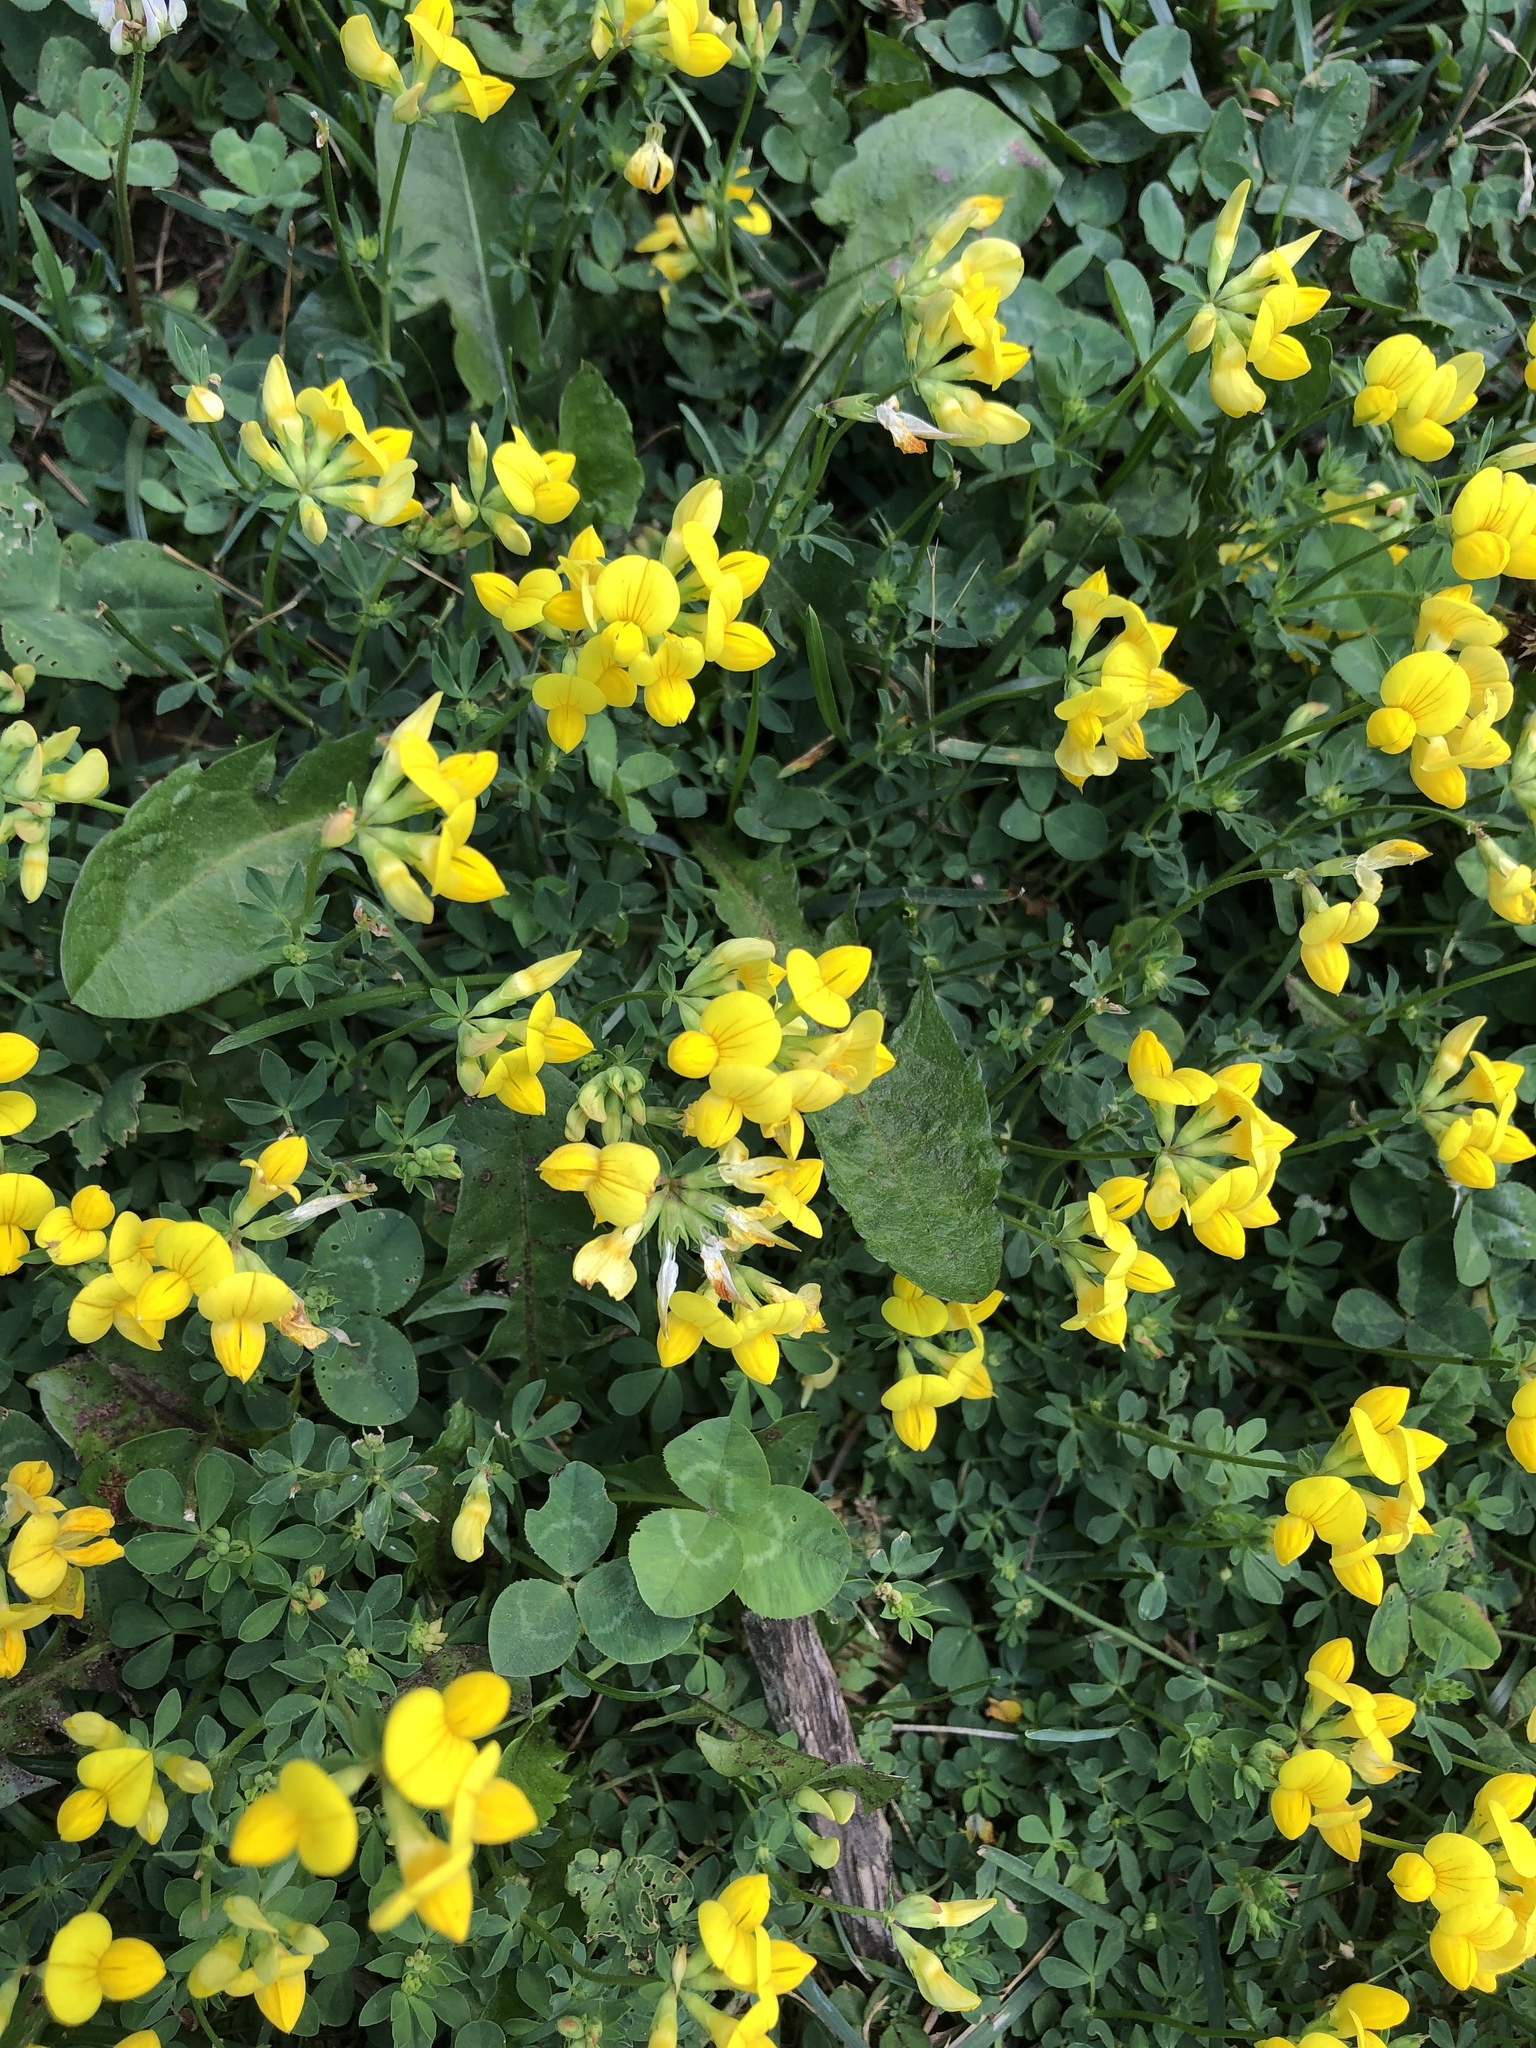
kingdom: Plantae
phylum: Tracheophyta
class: Magnoliopsida
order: Fabales
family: Fabaceae
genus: Lotus
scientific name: Lotus corniculatus
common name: Common bird's-foot-trefoil
